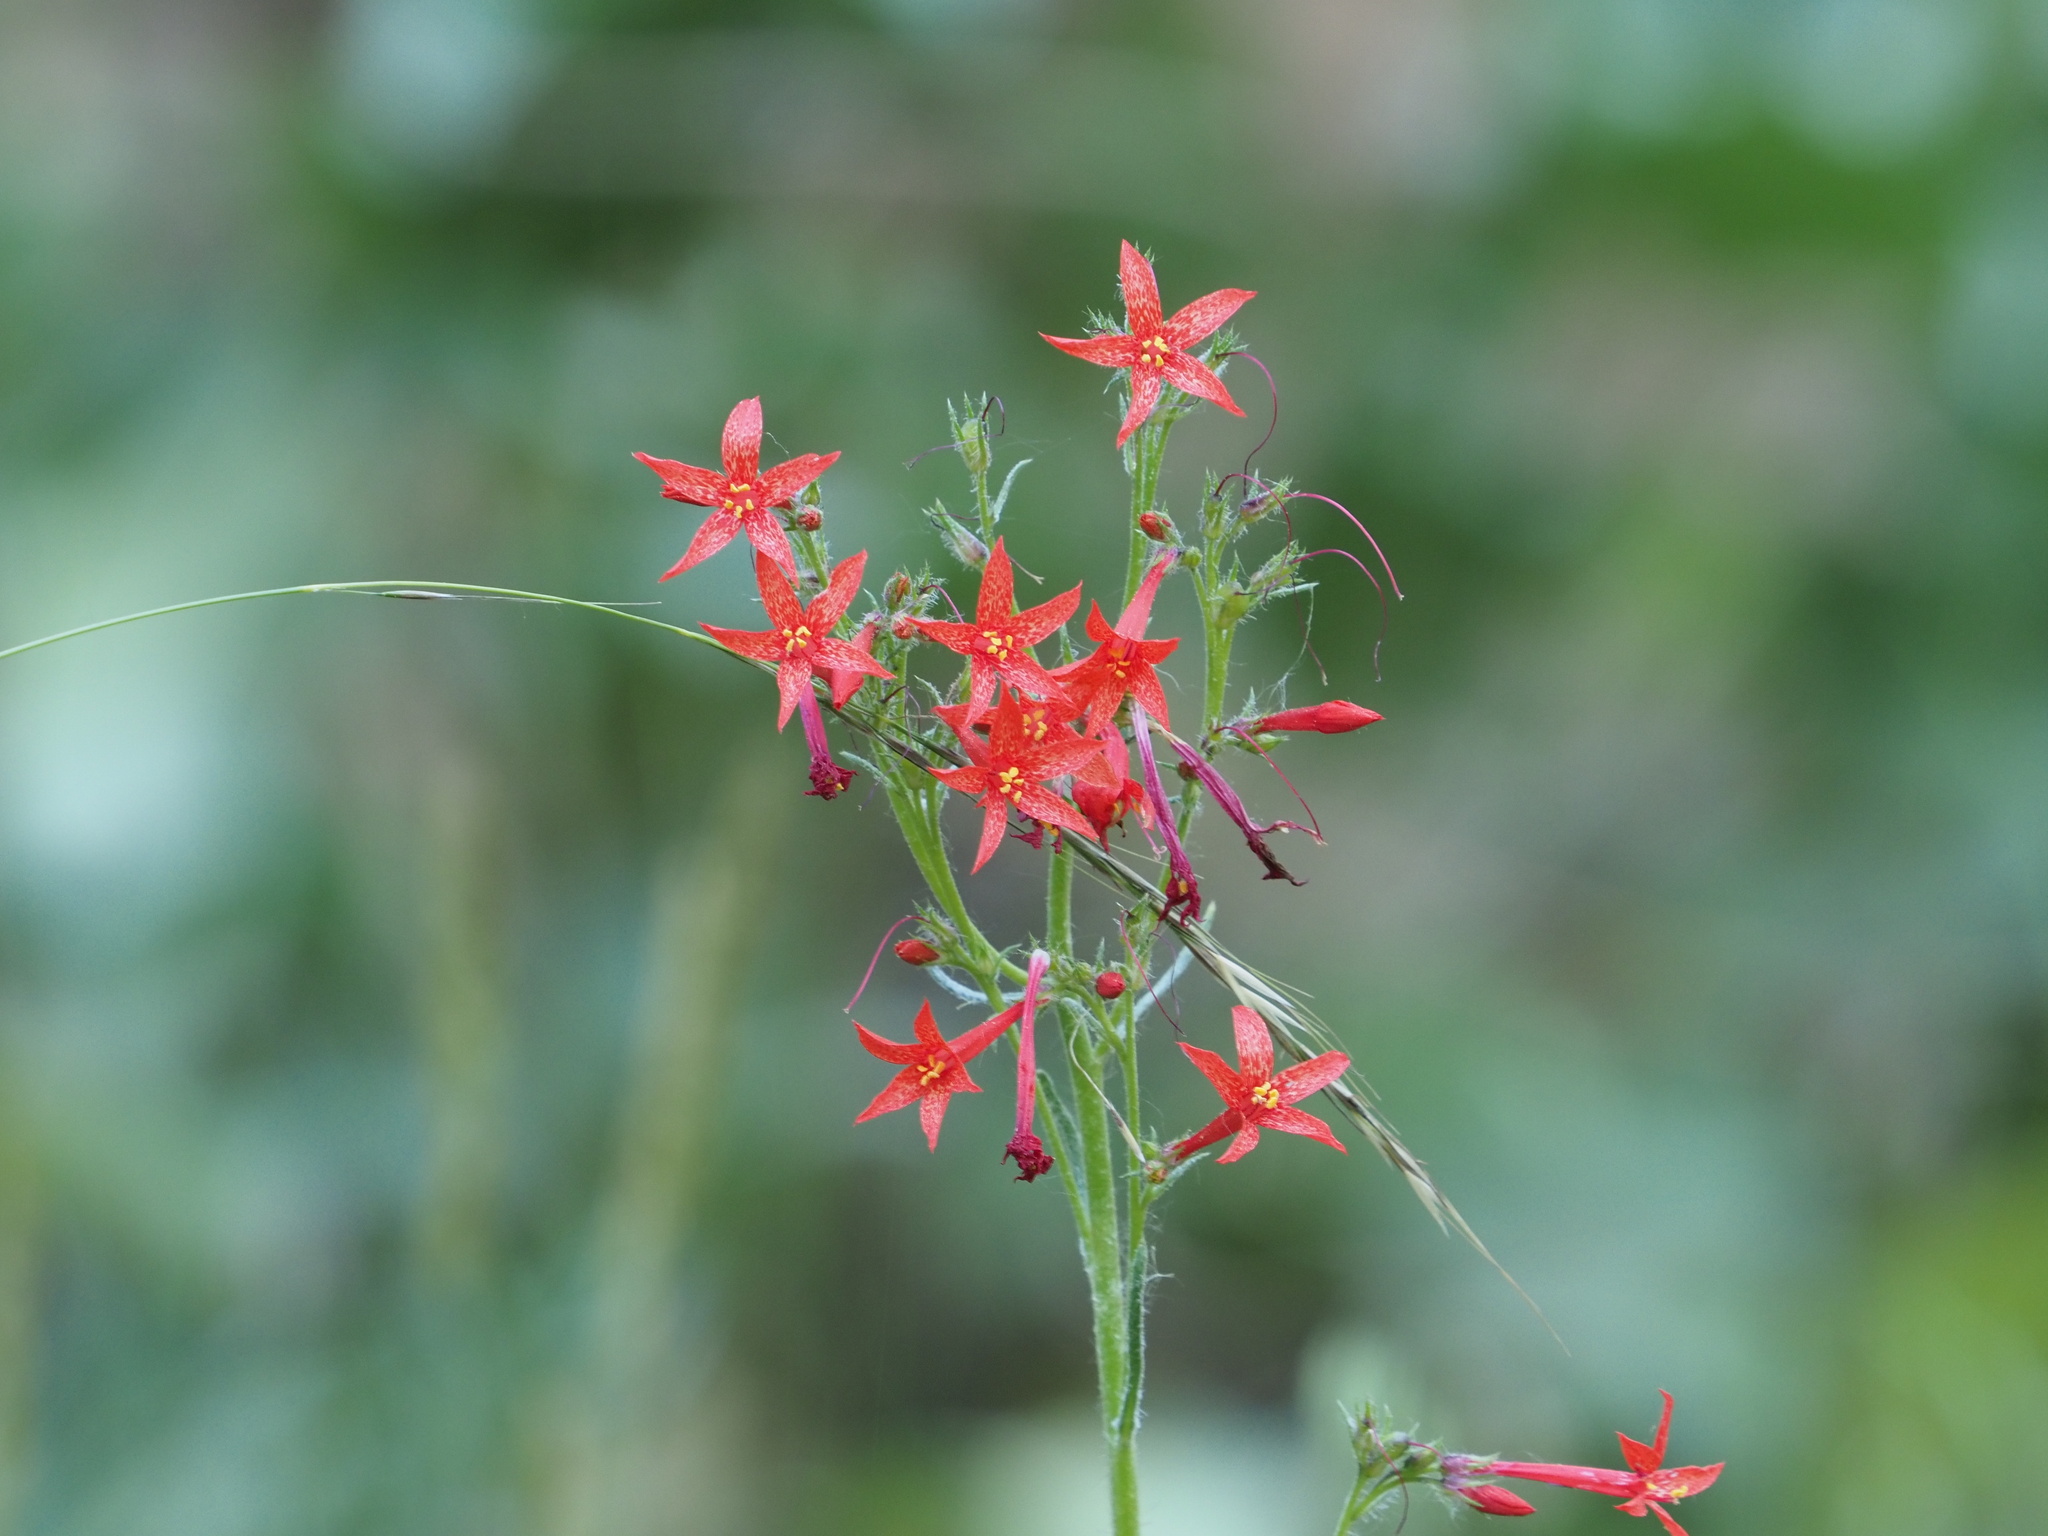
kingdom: Plantae
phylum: Tracheophyta
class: Magnoliopsida
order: Ericales
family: Polemoniaceae
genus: Ipomopsis
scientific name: Ipomopsis aggregata
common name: Scarlet gilia
